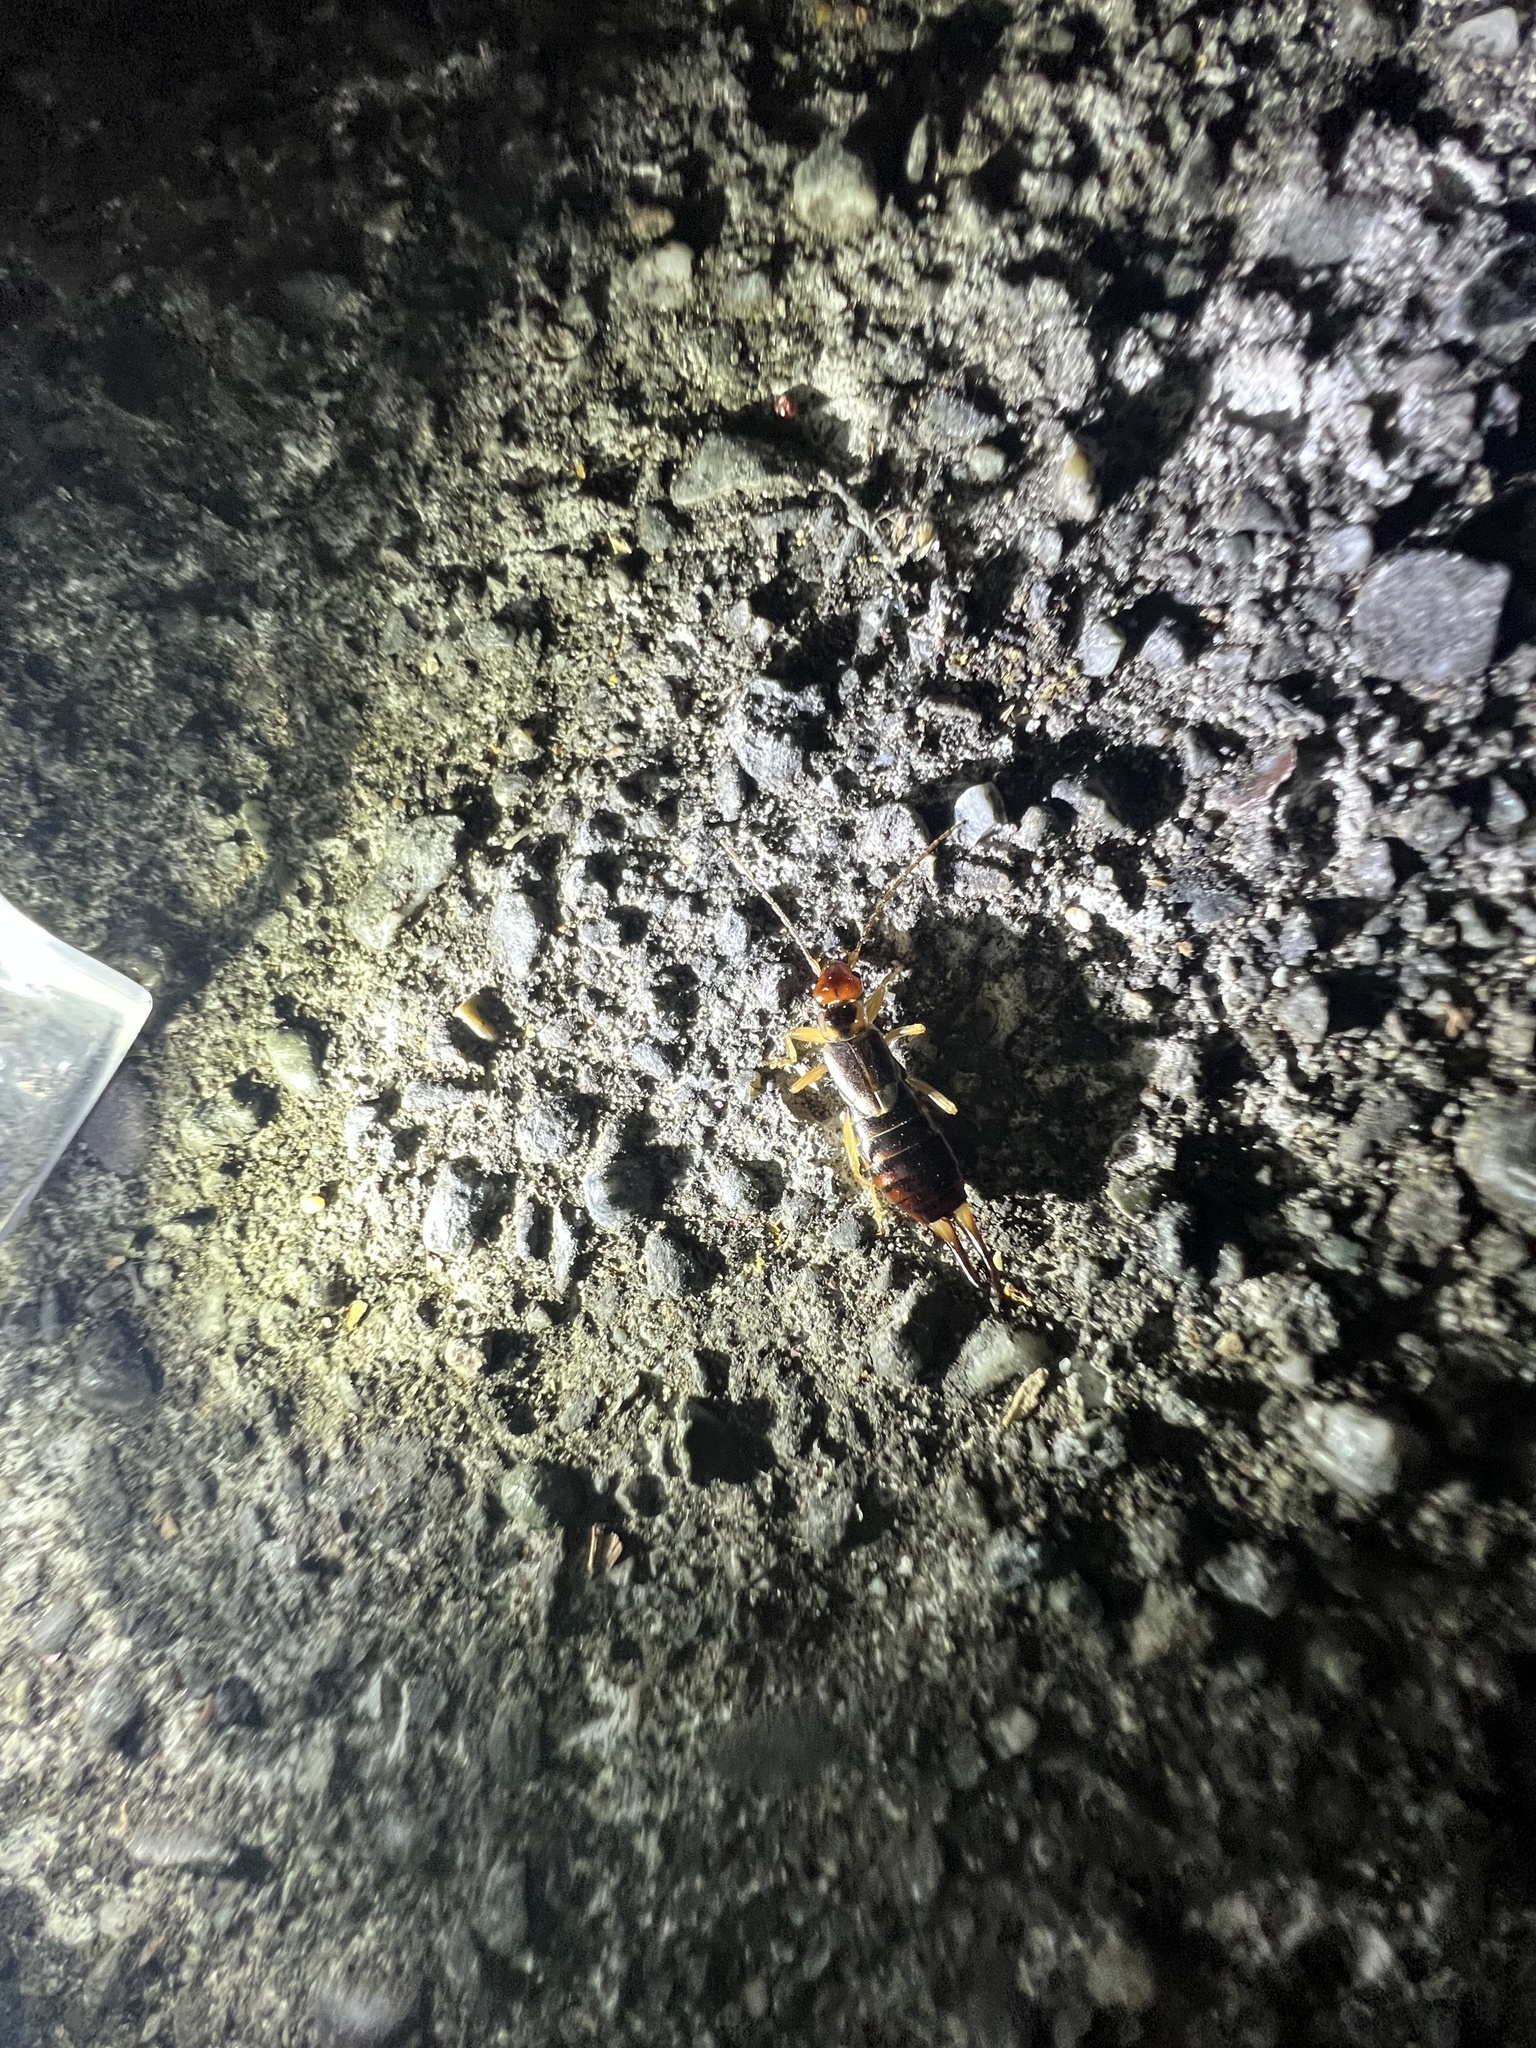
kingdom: Animalia
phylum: Arthropoda
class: Insecta
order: Dermaptera
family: Forficulidae
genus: Forficula
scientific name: Forficula dentata
